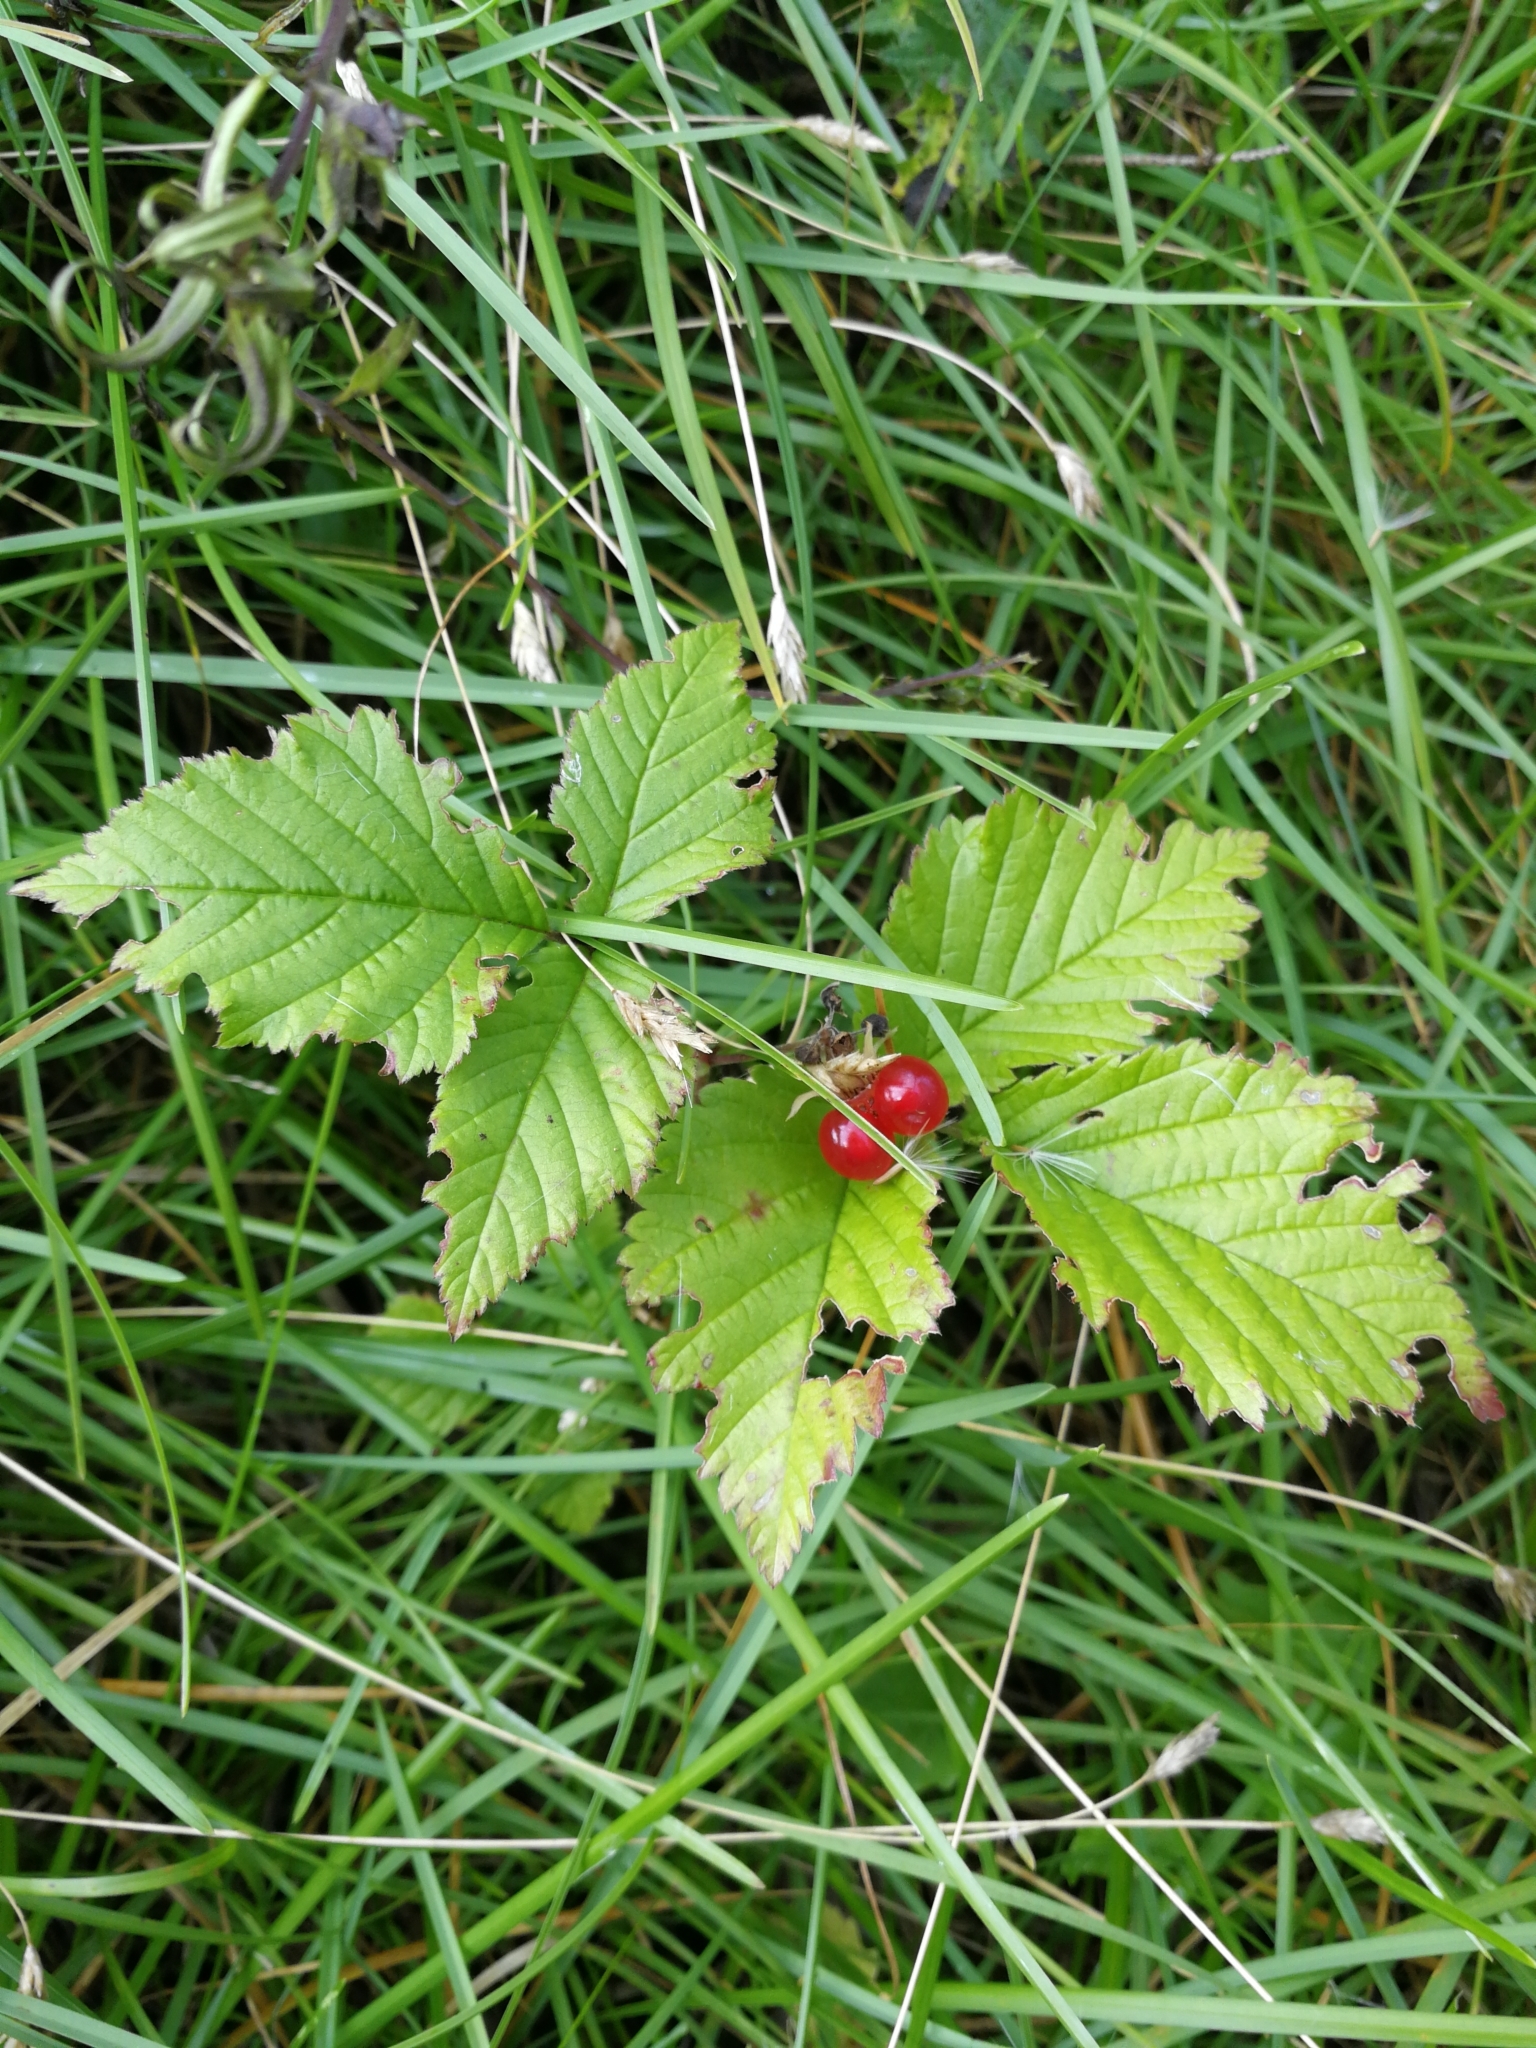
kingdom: Plantae
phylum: Tracheophyta
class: Magnoliopsida
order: Rosales
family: Rosaceae
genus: Rubus
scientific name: Rubus saxatilis
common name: Stone bramble
